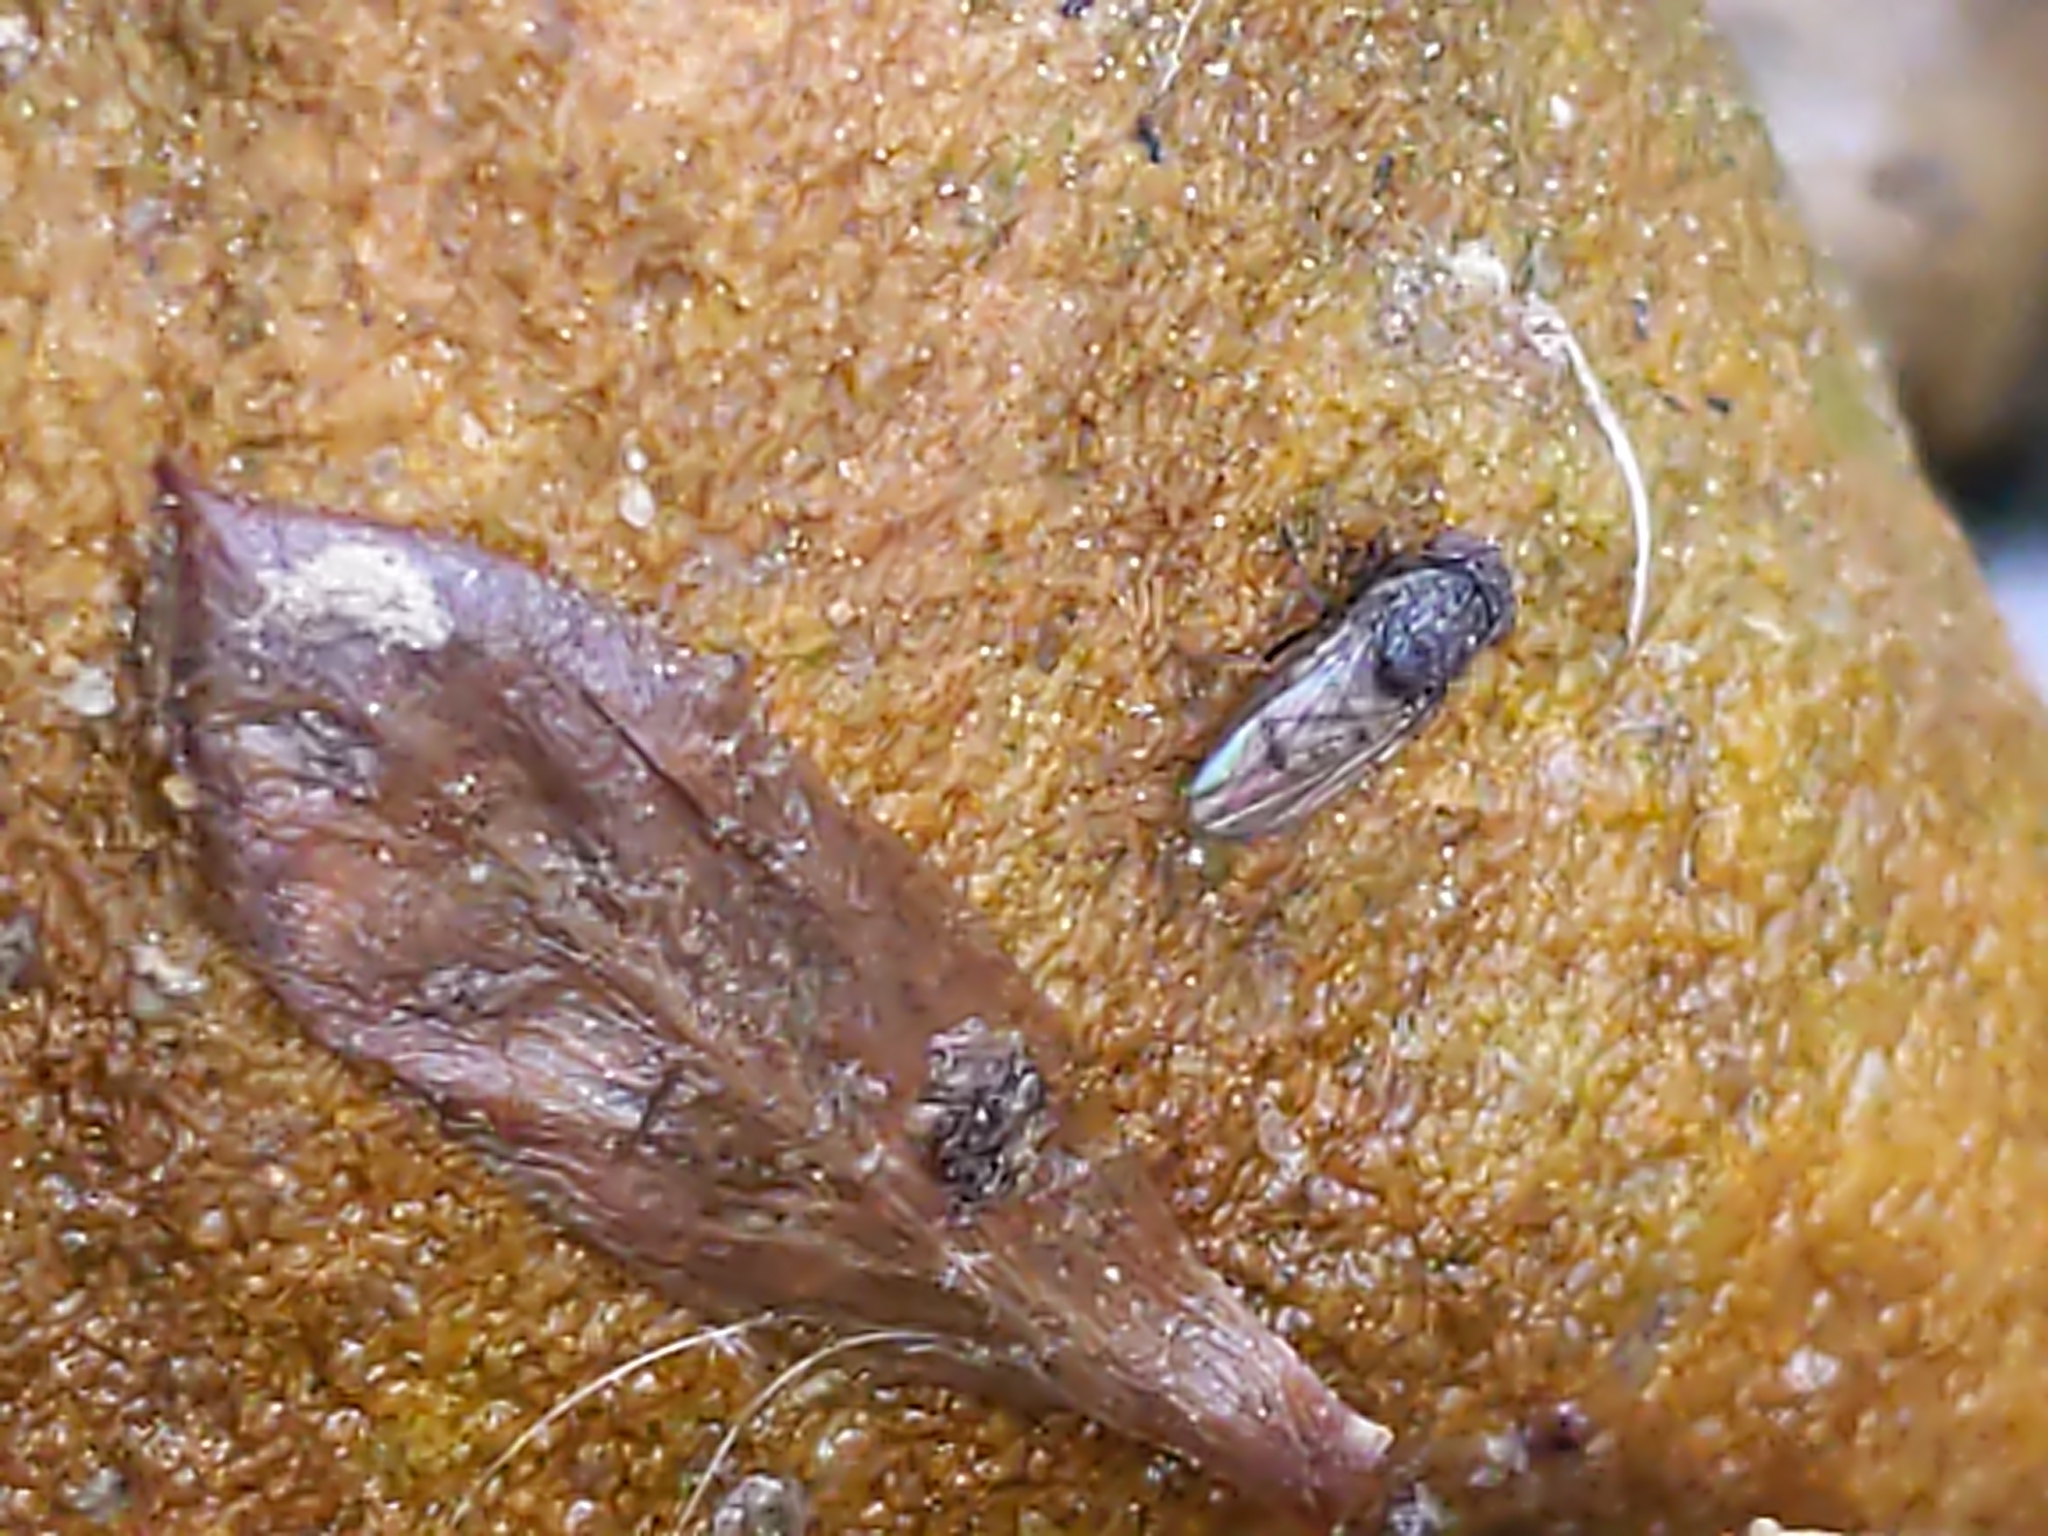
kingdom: Animalia
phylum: Arthropoda
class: Insecta
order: Diptera
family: Ephydridae
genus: Paralimna
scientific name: Paralimna punctipennis
